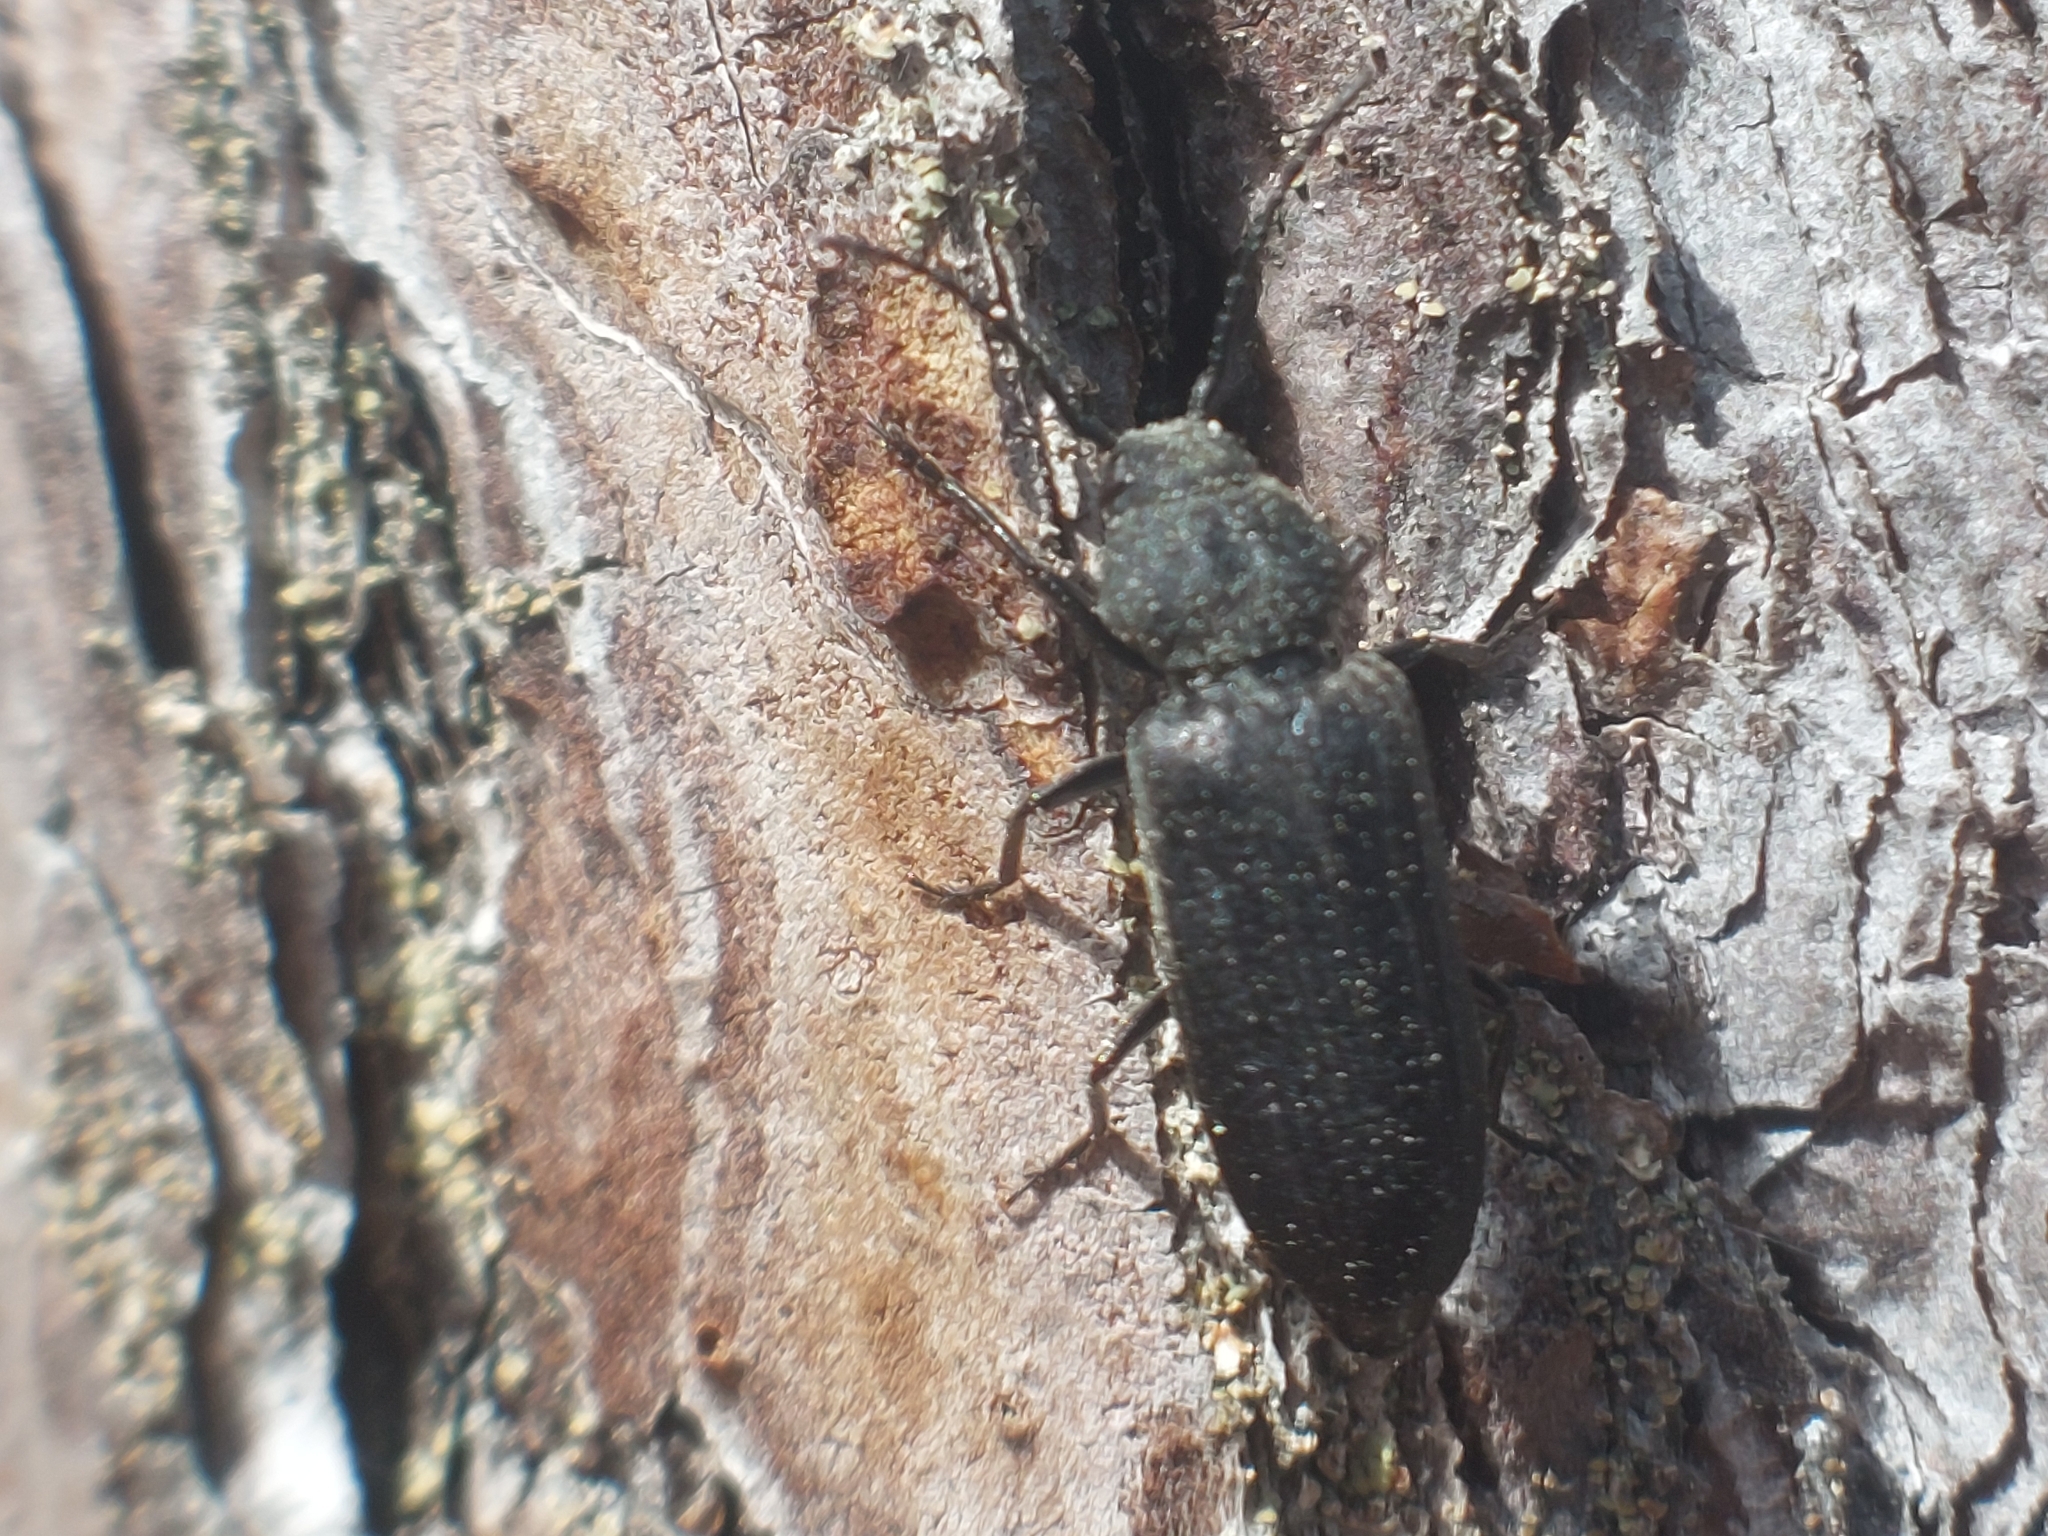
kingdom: Animalia
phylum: Arthropoda
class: Insecta
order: Coleoptera
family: Cerambycidae
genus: Asemum
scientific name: Asemum striatum
